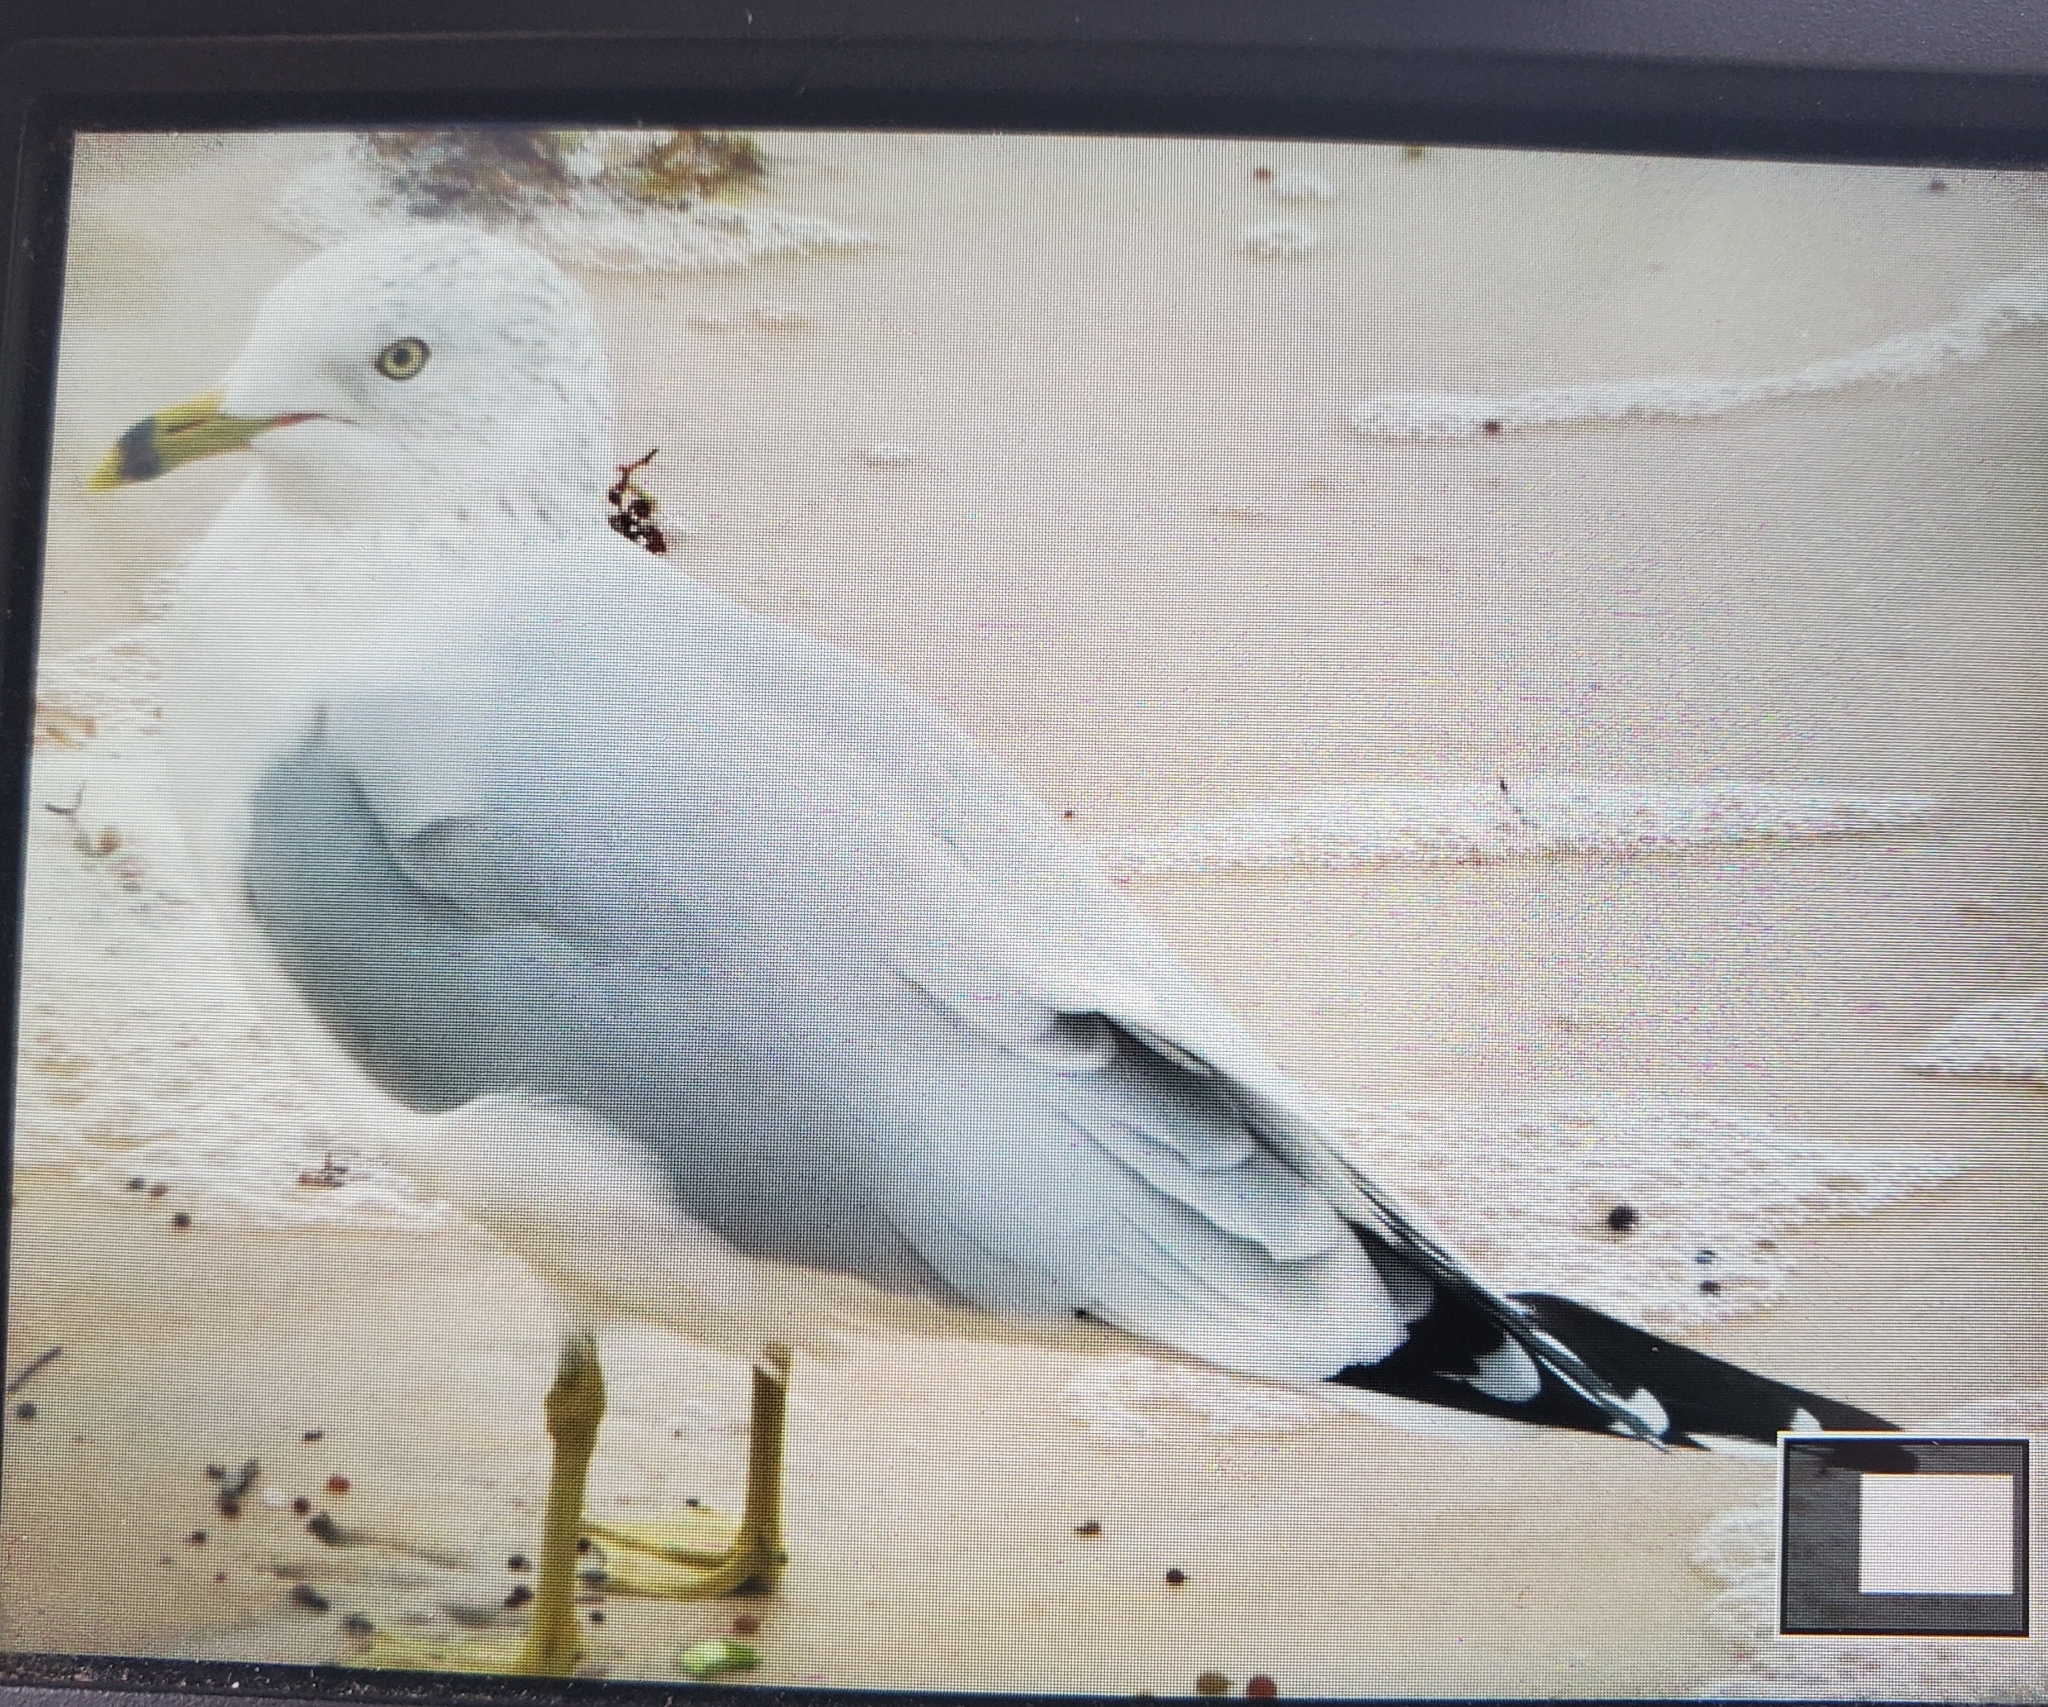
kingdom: Animalia
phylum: Chordata
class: Aves
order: Charadriiformes
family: Laridae
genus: Larus
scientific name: Larus delawarensis
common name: Ring-billed gull
